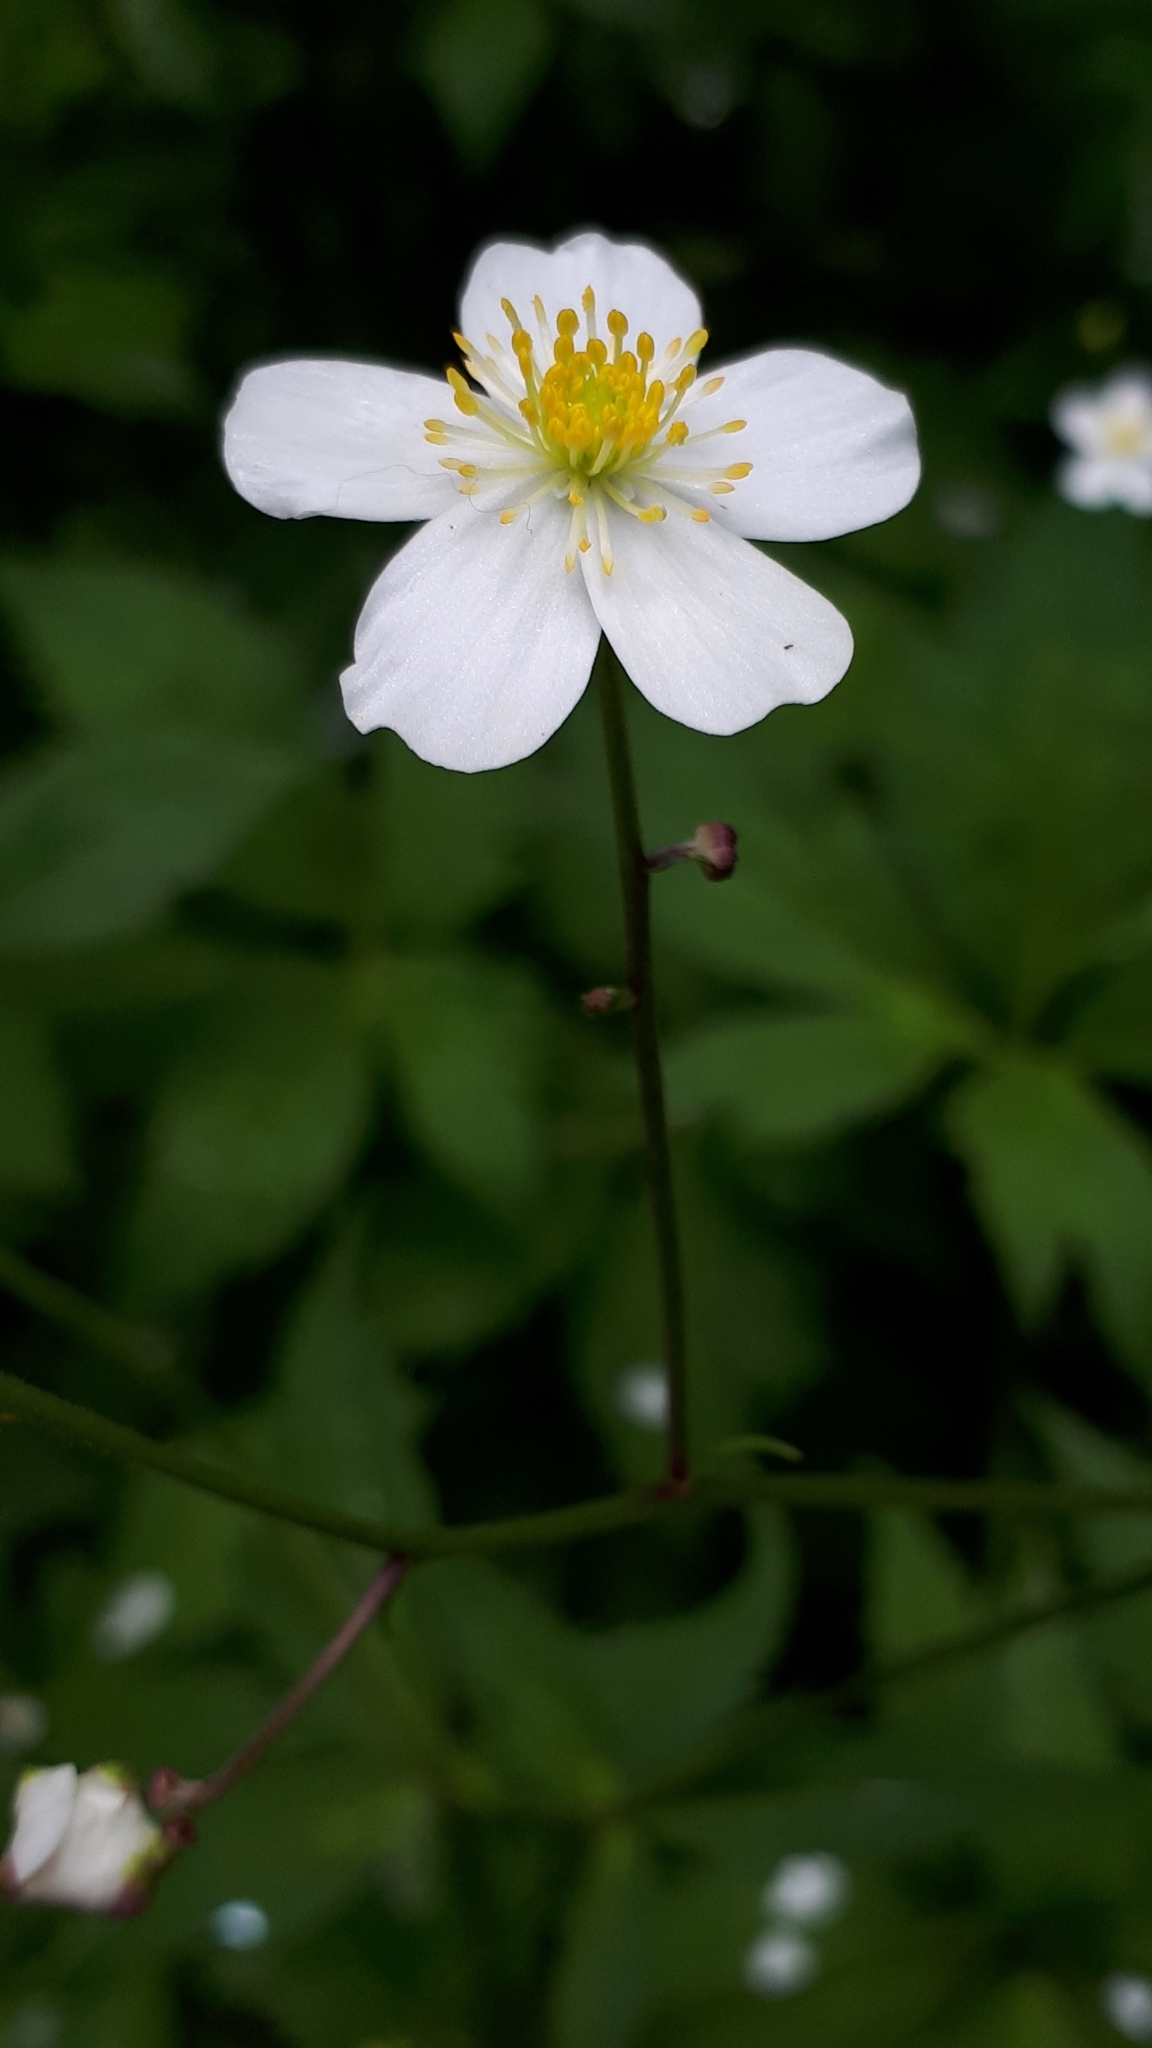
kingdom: Plantae
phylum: Tracheophyta
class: Magnoliopsida
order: Ranunculales
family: Ranunculaceae
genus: Ranunculus
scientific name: Ranunculus platanifolius
